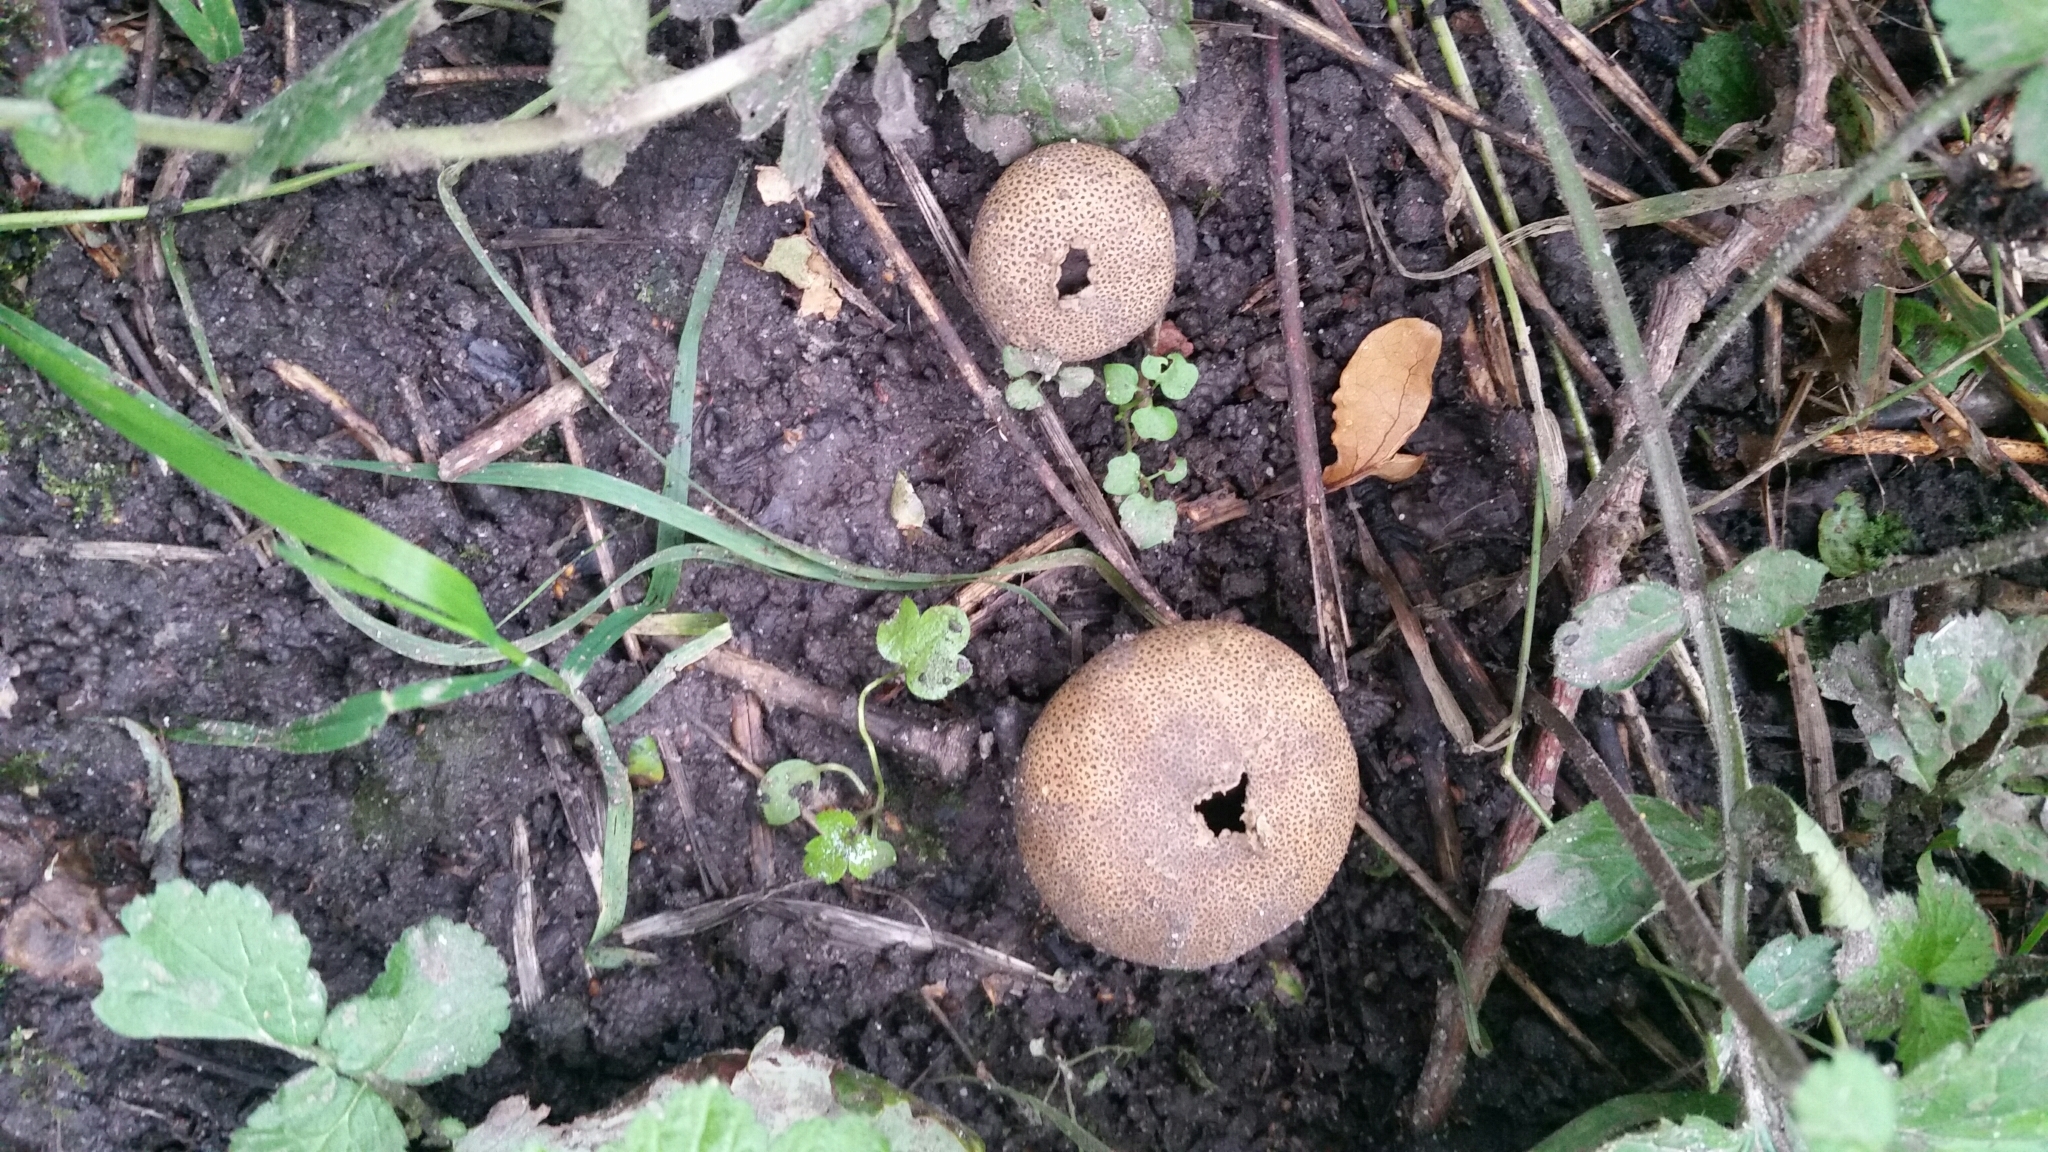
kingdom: Fungi
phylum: Basidiomycota
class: Agaricomycetes
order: Boletales
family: Sclerodermataceae
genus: Scleroderma
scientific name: Scleroderma citrinum
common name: Common earthball
